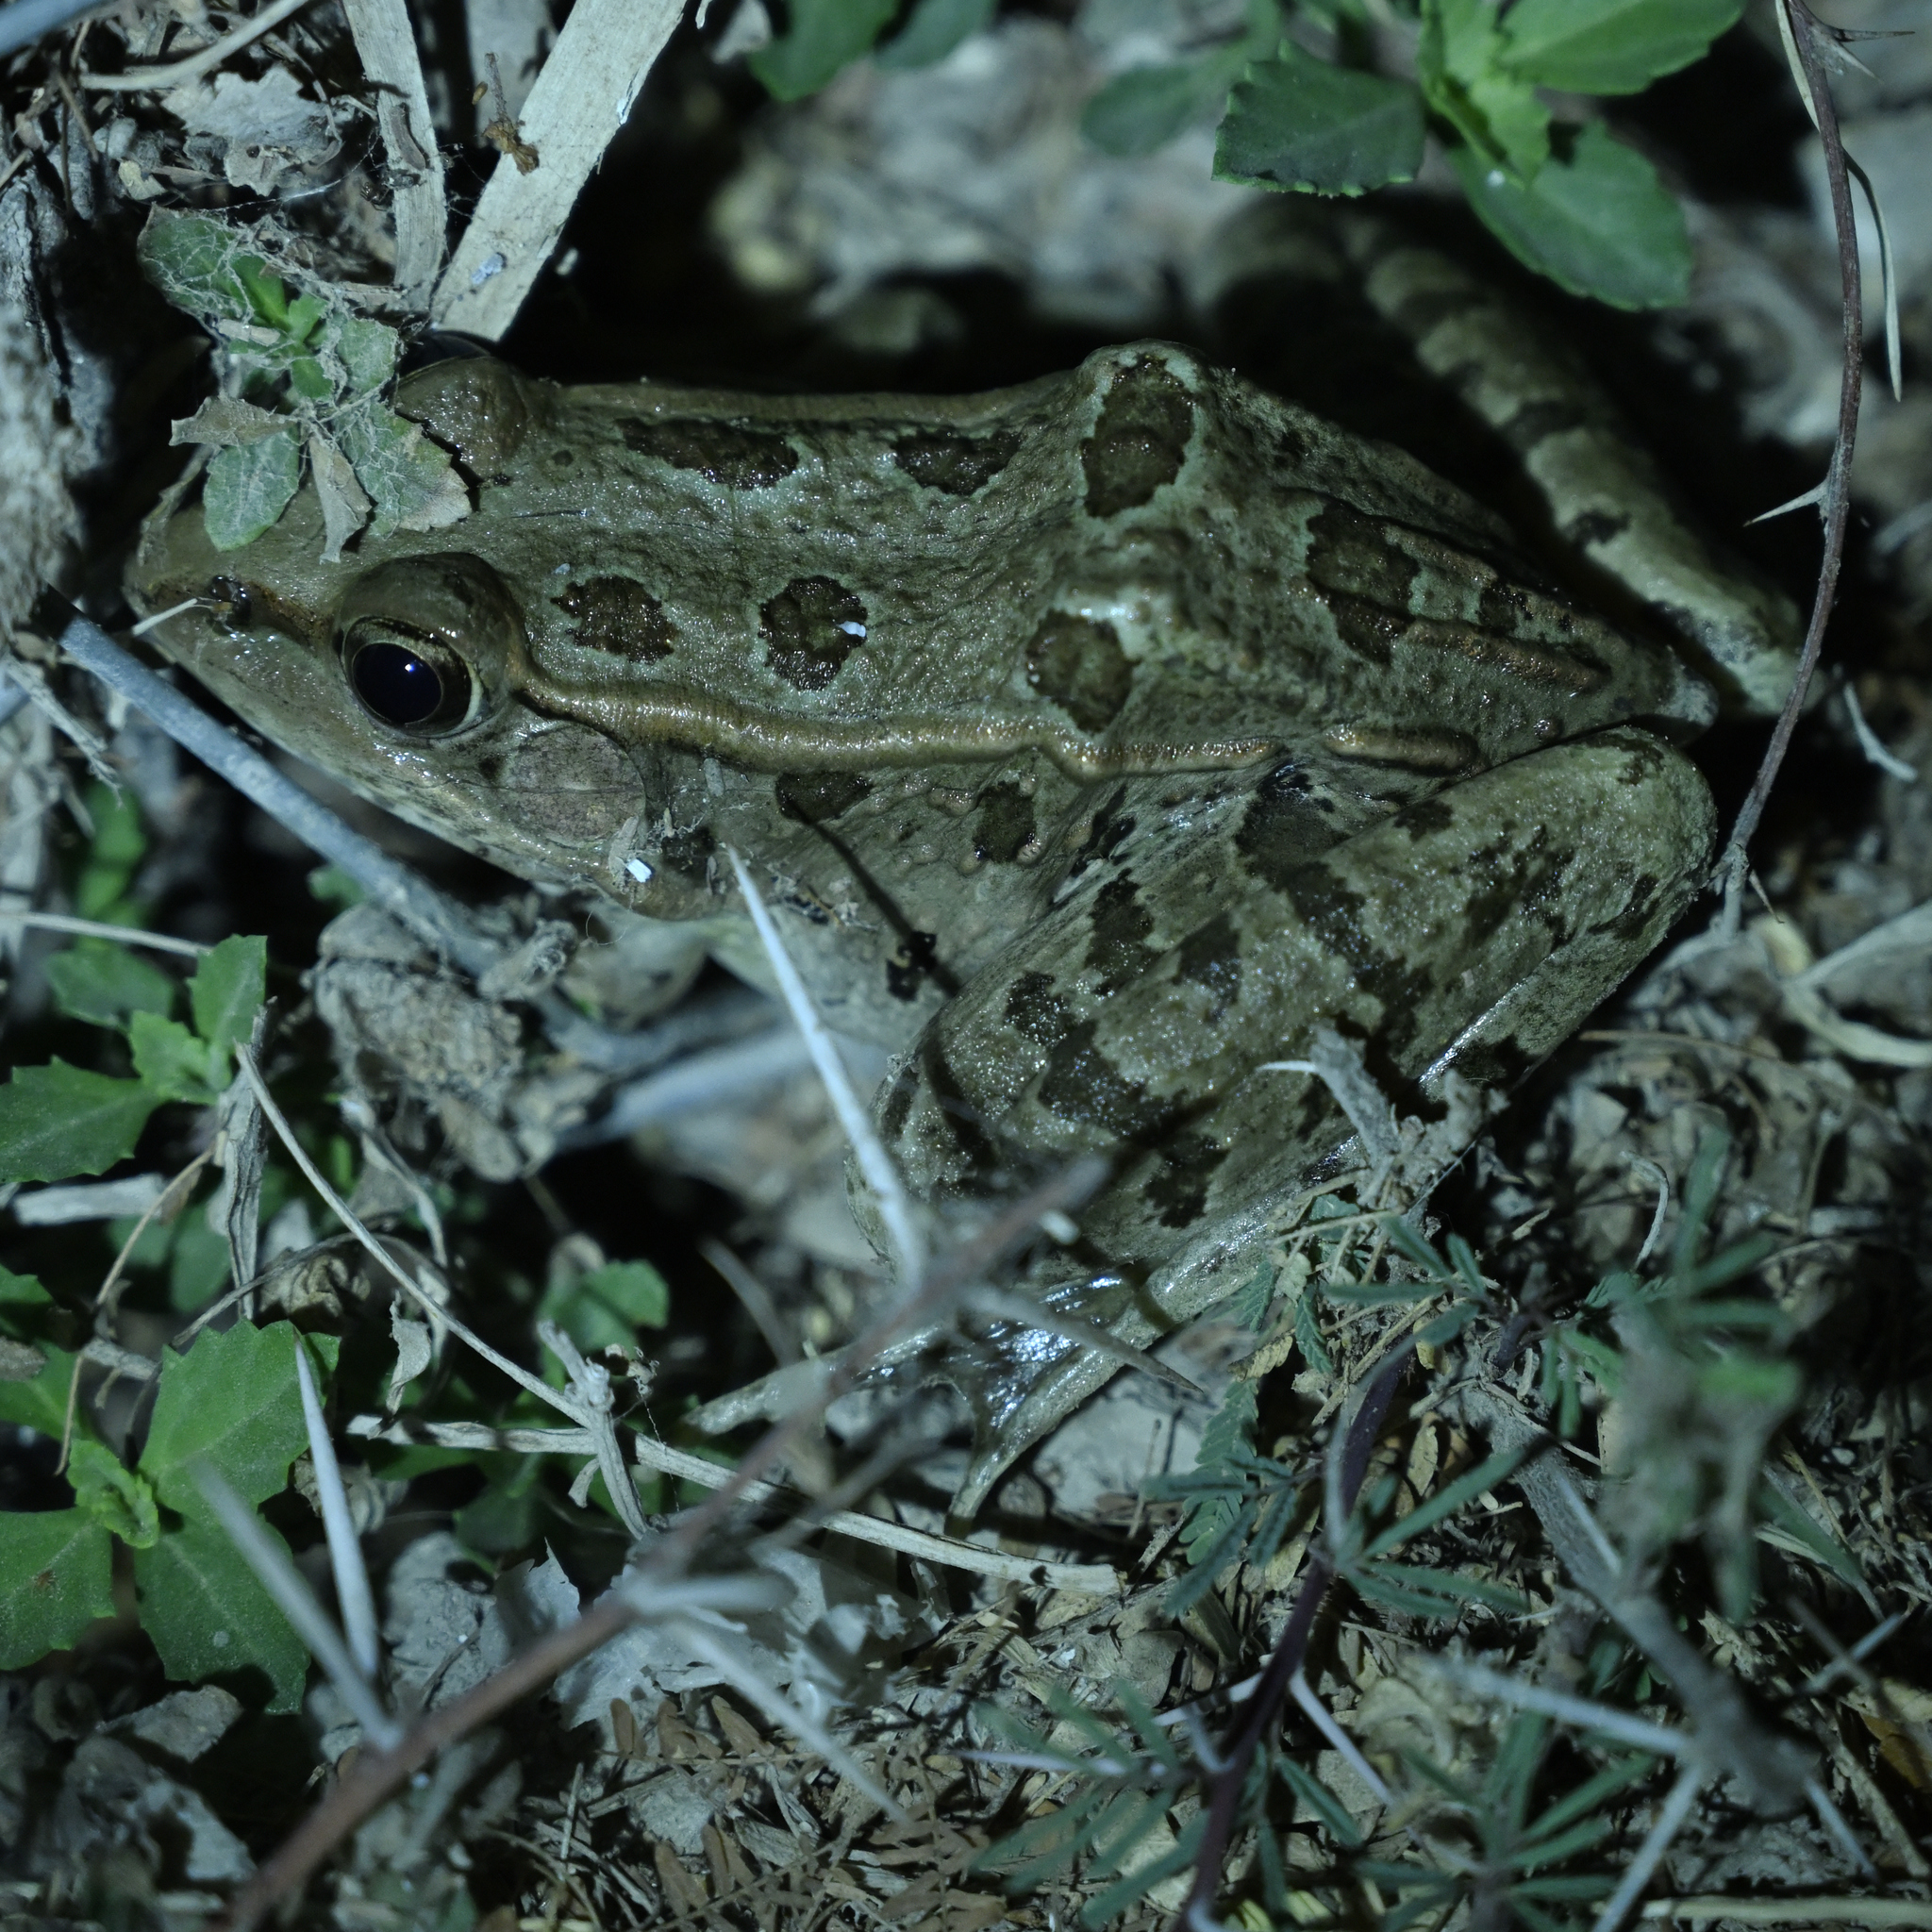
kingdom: Animalia
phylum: Chordata
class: Amphibia
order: Anura
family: Ranidae
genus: Lithobates
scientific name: Lithobates berlandieri
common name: Rio grande leopard frog
